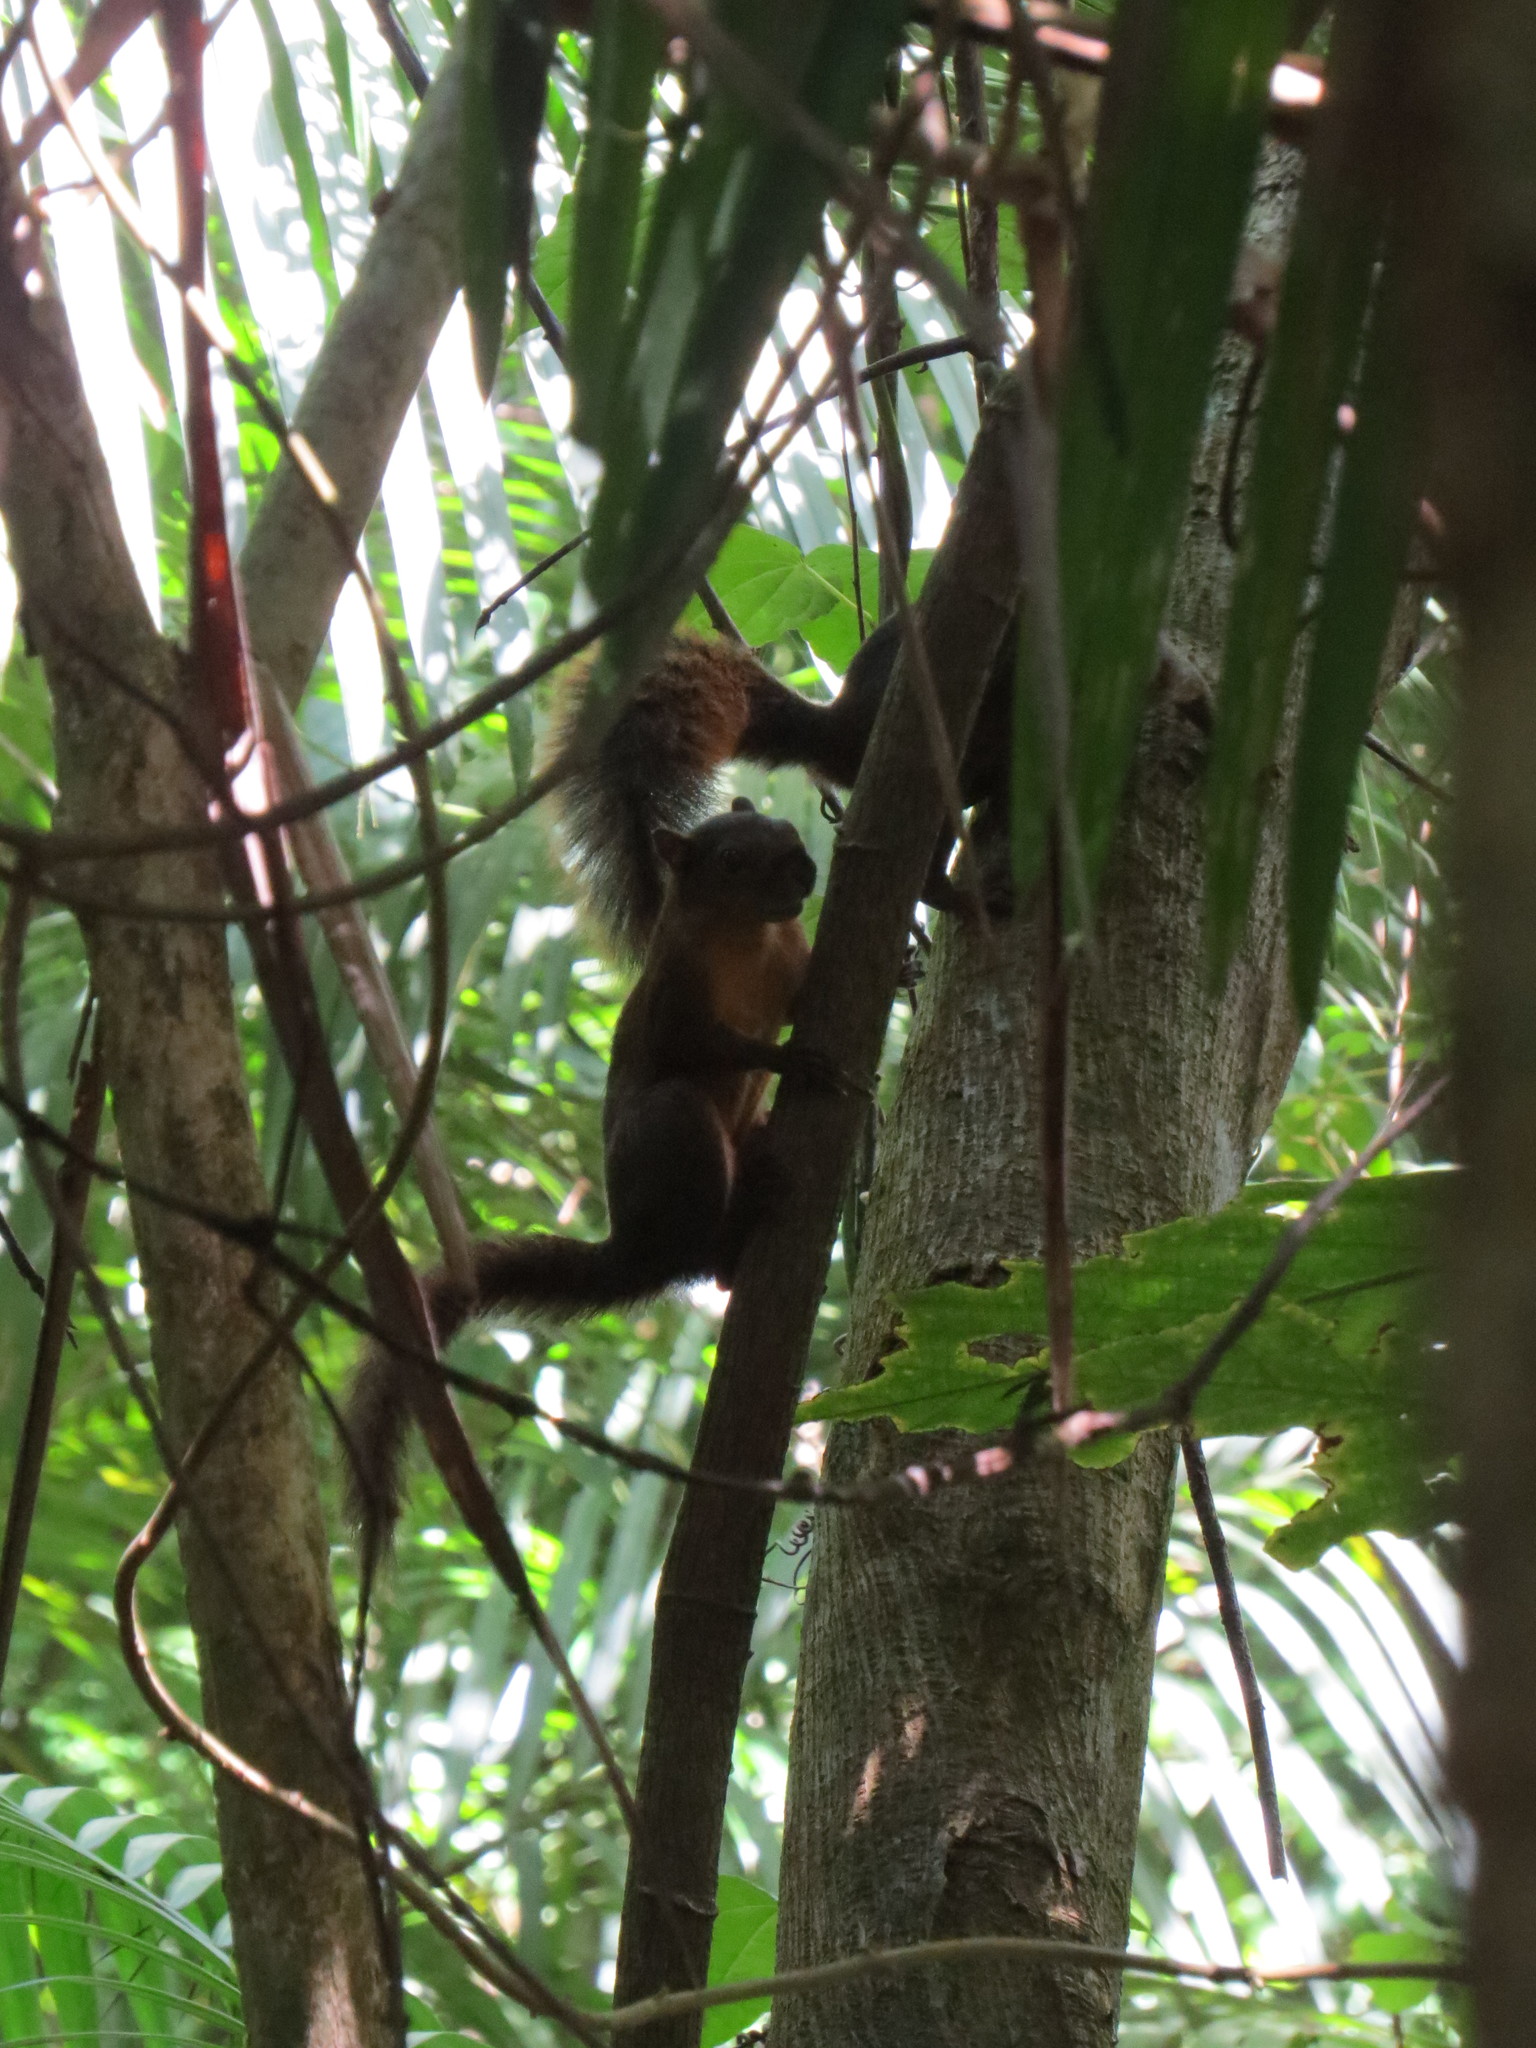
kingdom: Animalia
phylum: Chordata
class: Mammalia
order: Rodentia
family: Sciuridae
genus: Sciurus
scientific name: Sciurus granatensis
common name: Red-tailed squirrel
